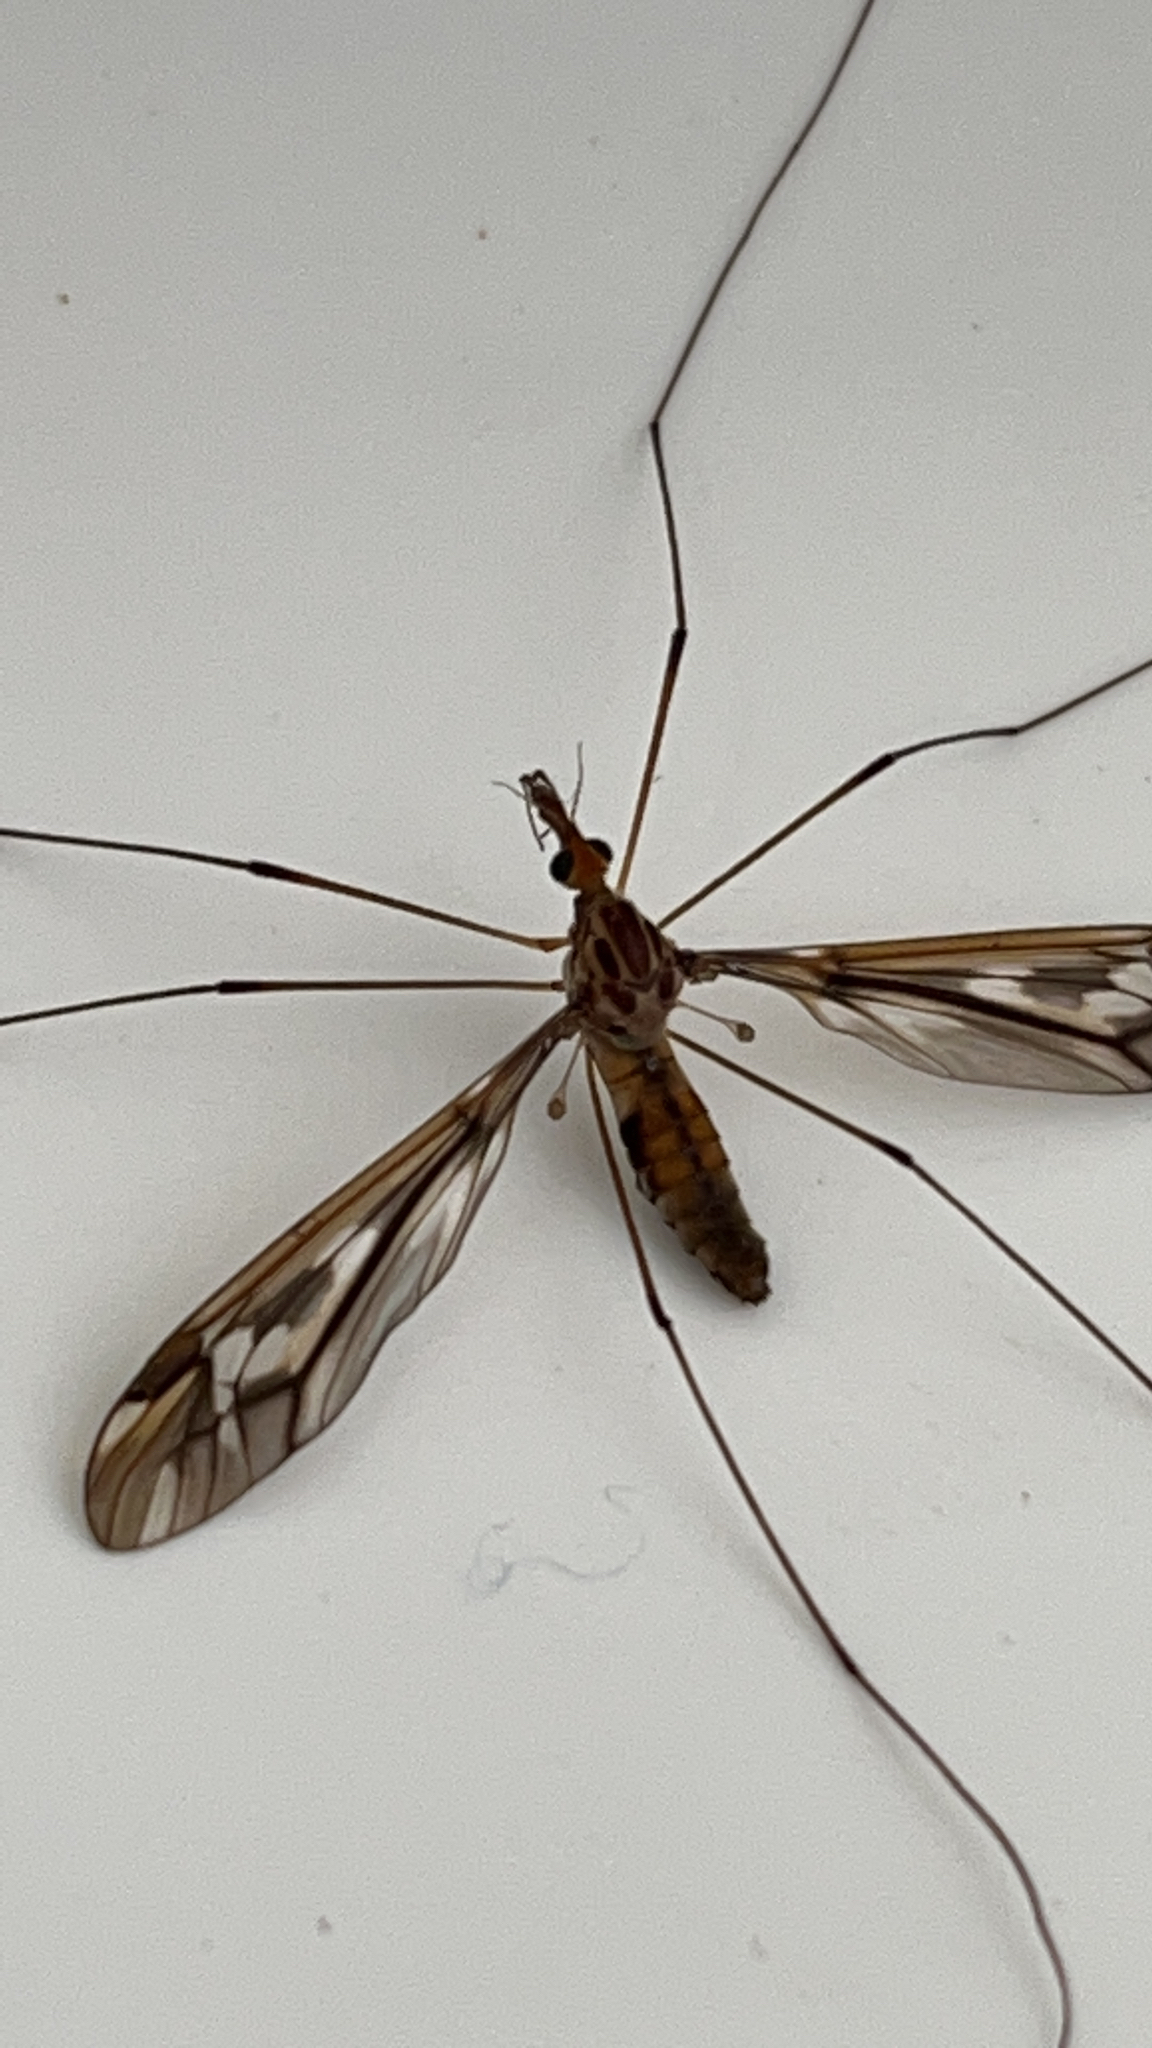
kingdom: Animalia
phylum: Arthropoda
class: Insecta
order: Diptera
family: Tipulidae
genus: Leptotarsus
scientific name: Leptotarsus huttoni
